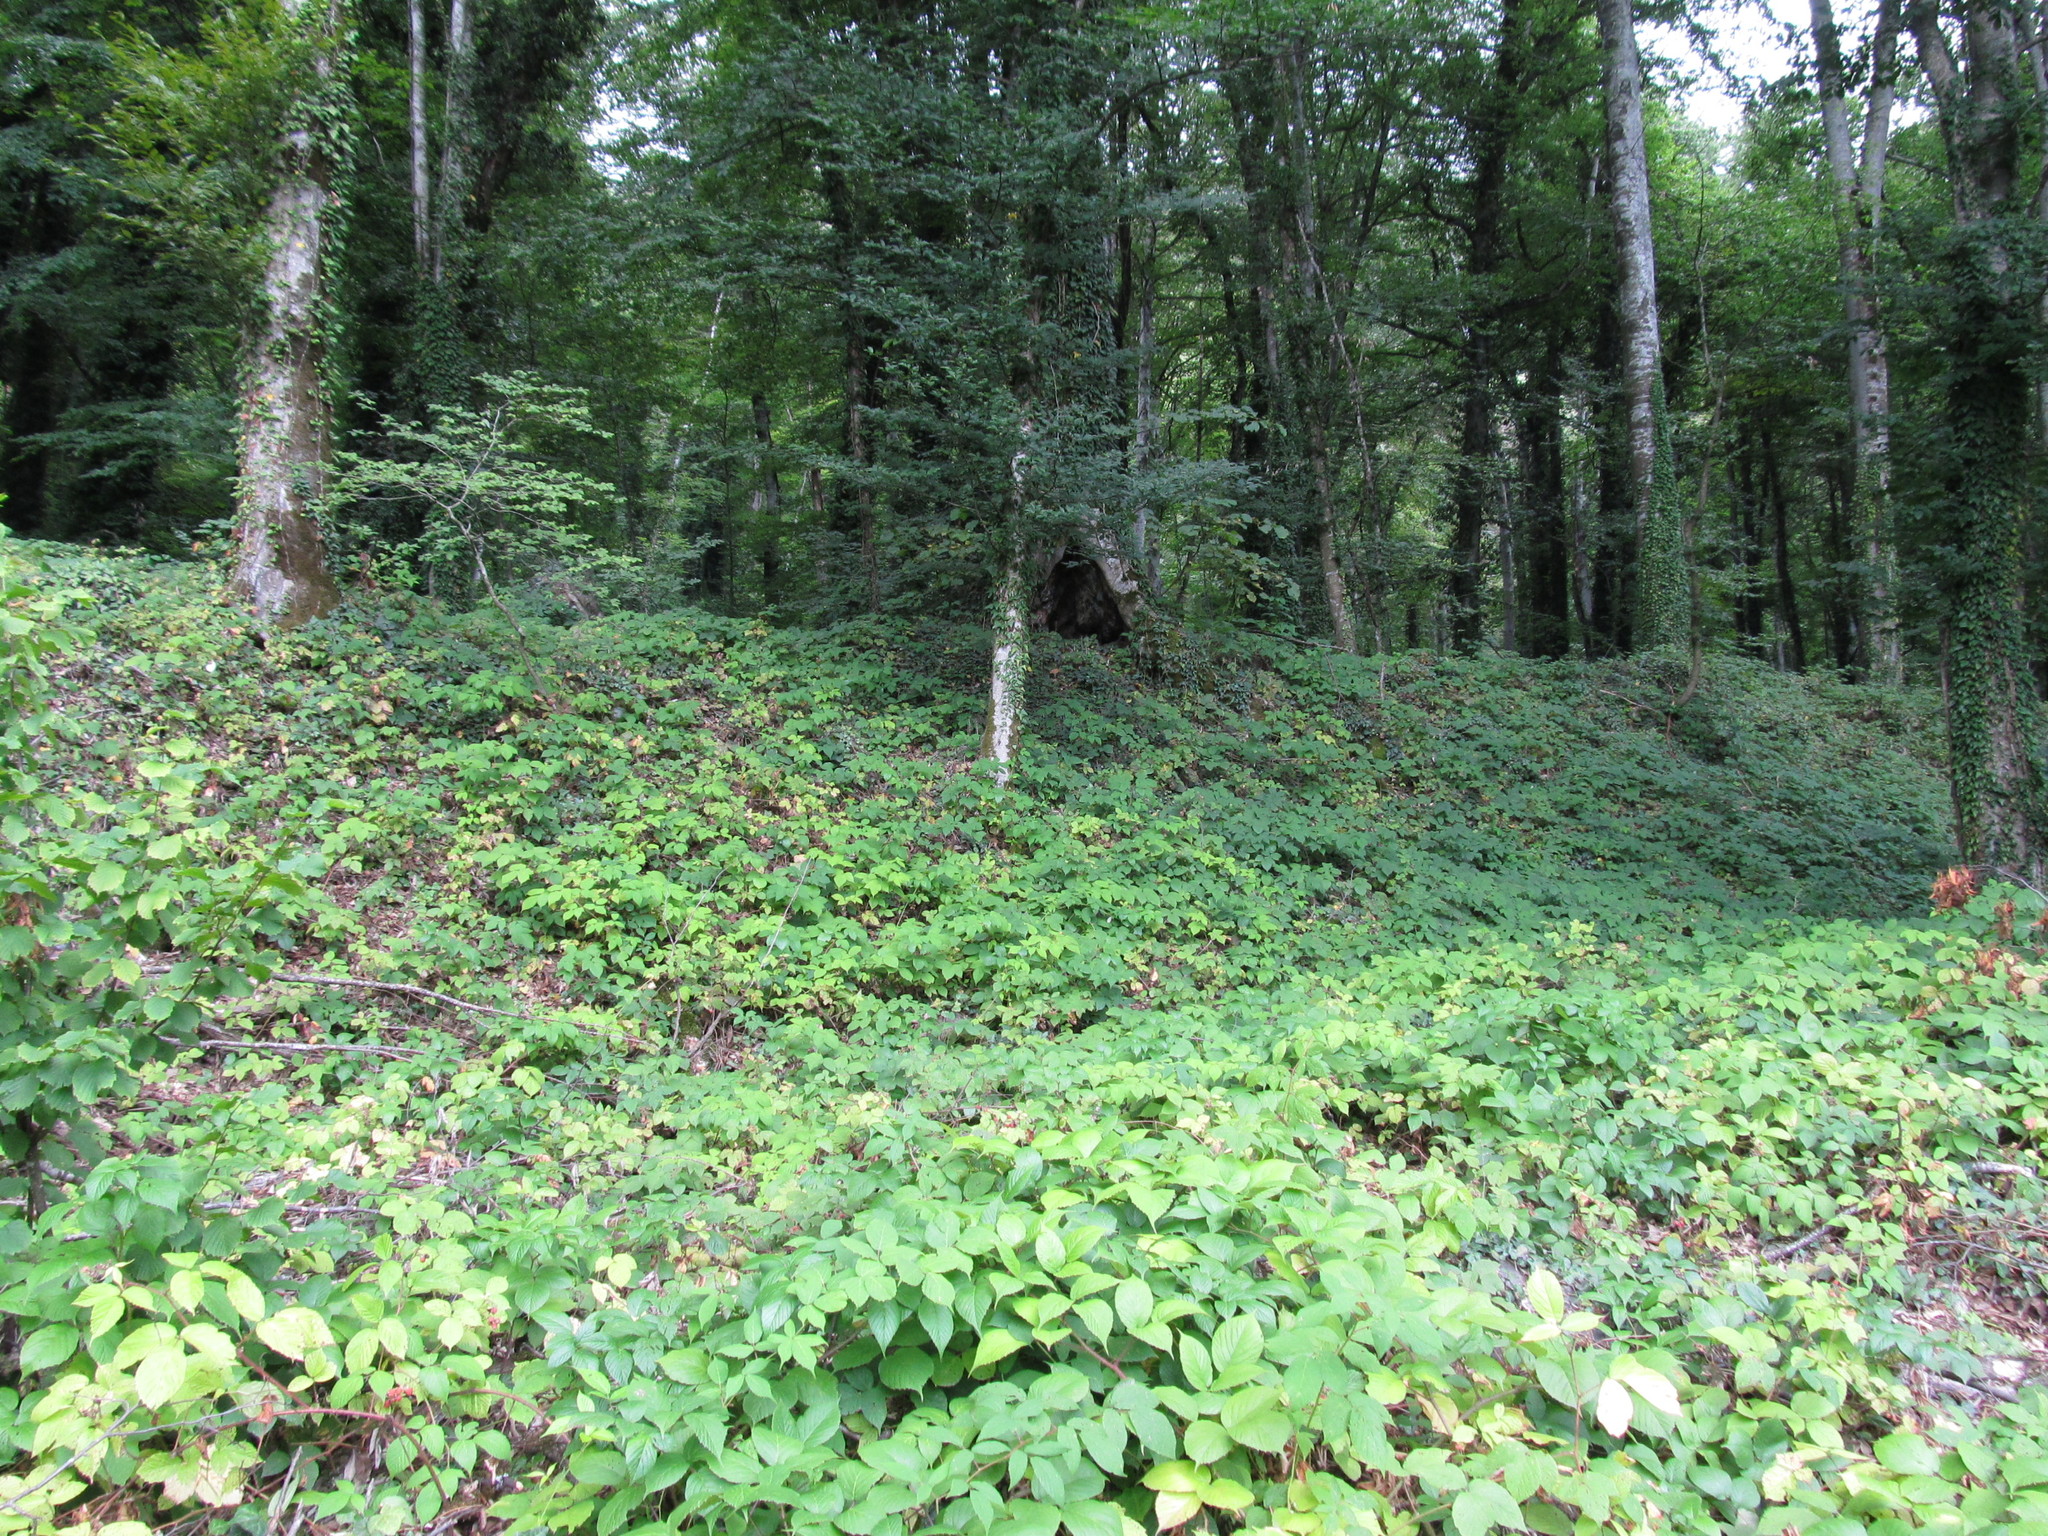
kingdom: Plantae
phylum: Tracheophyta
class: Magnoliopsida
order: Rosales
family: Rosaceae
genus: Rubus
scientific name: Rubus
